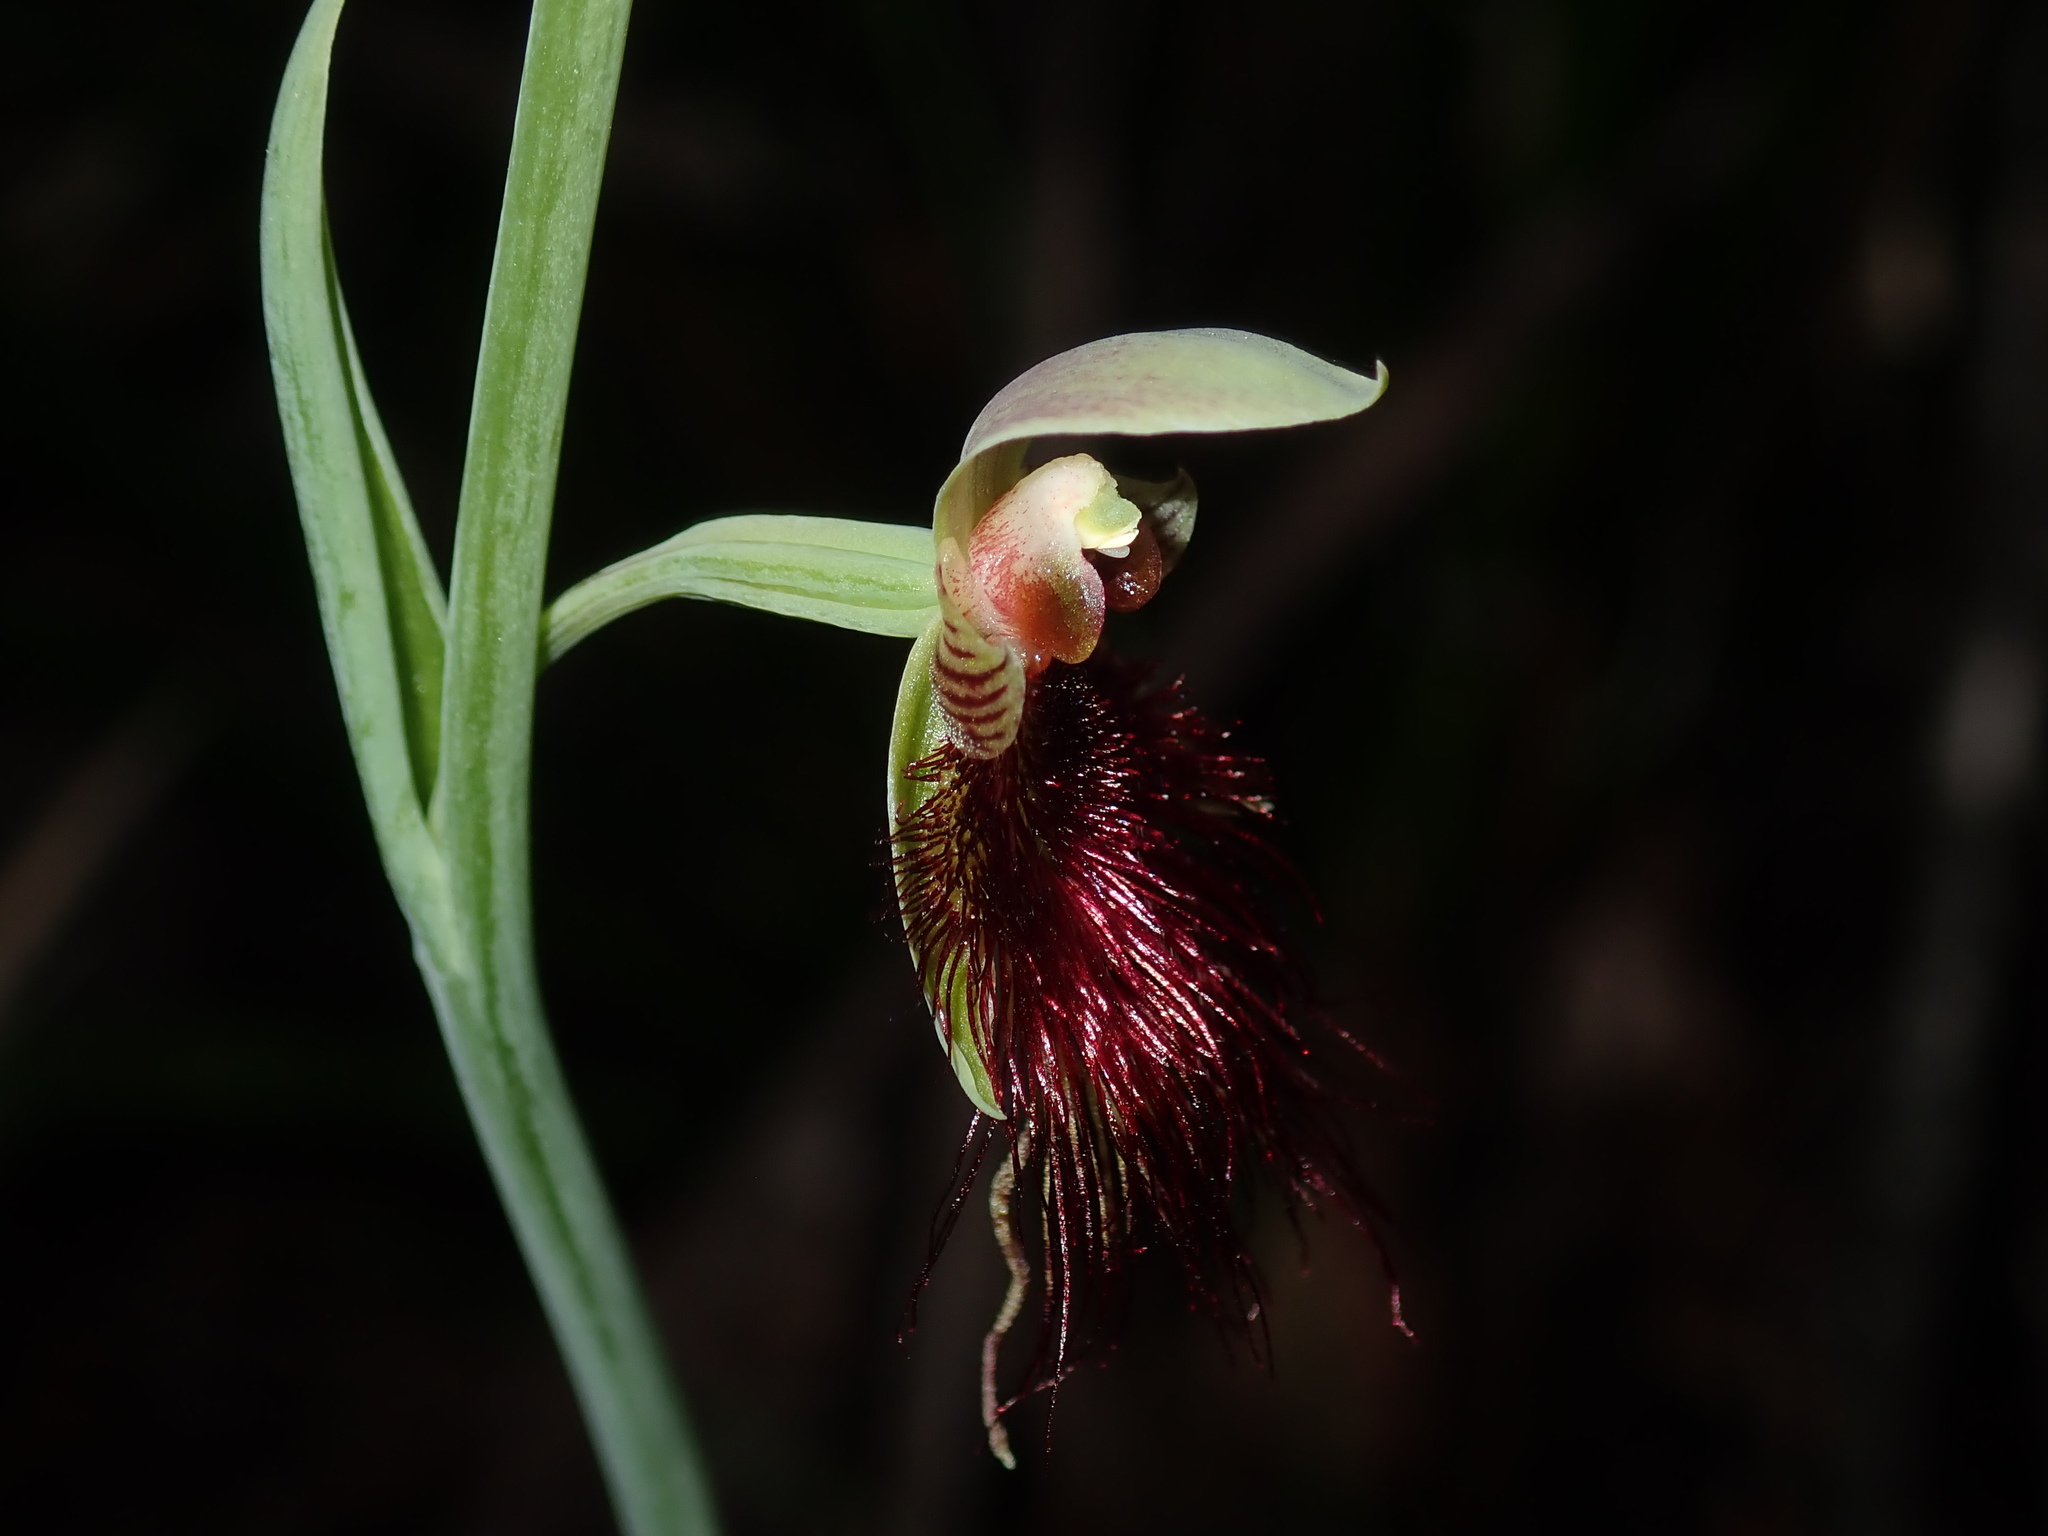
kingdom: Plantae
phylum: Tracheophyta
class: Liliopsida
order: Asparagales
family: Orchidaceae
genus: Calochilus
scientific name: Calochilus paludosus
